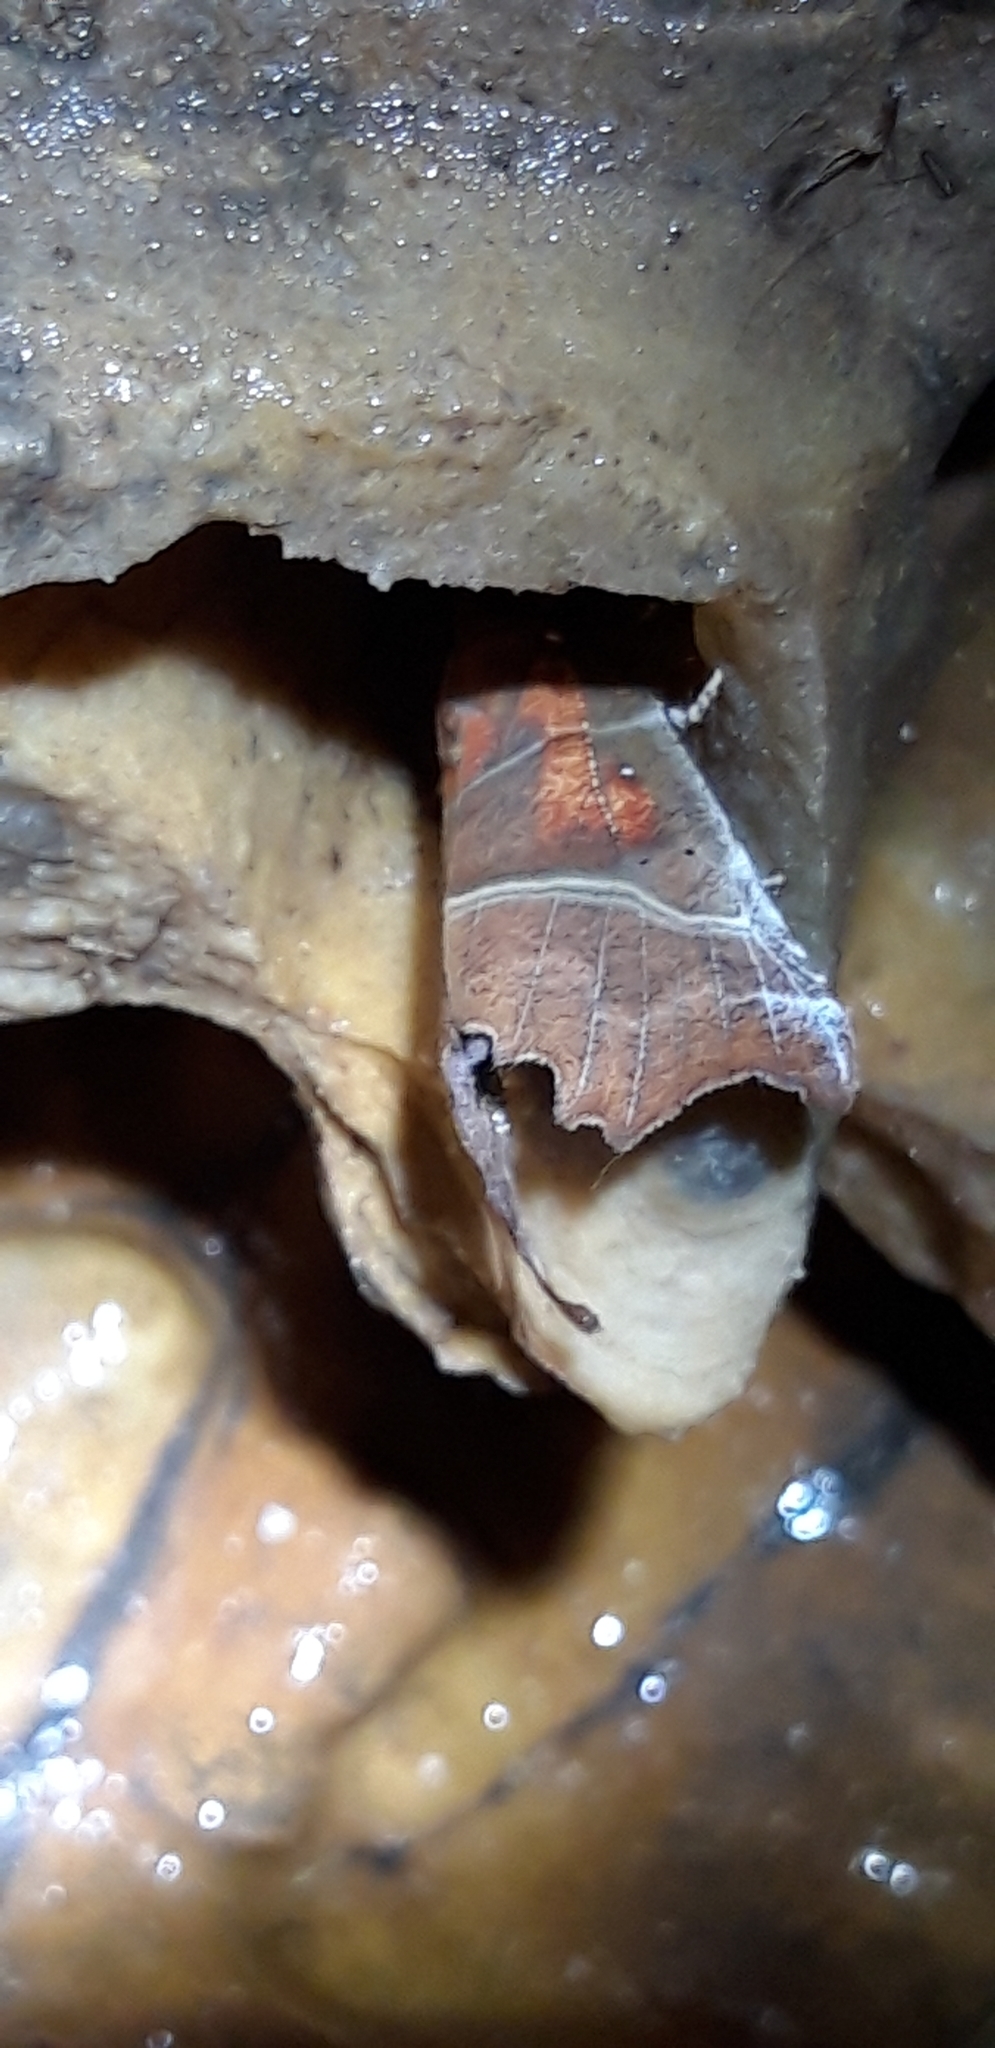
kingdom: Animalia
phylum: Arthropoda
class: Insecta
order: Lepidoptera
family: Erebidae
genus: Scoliopteryx
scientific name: Scoliopteryx libatrix
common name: Herald
